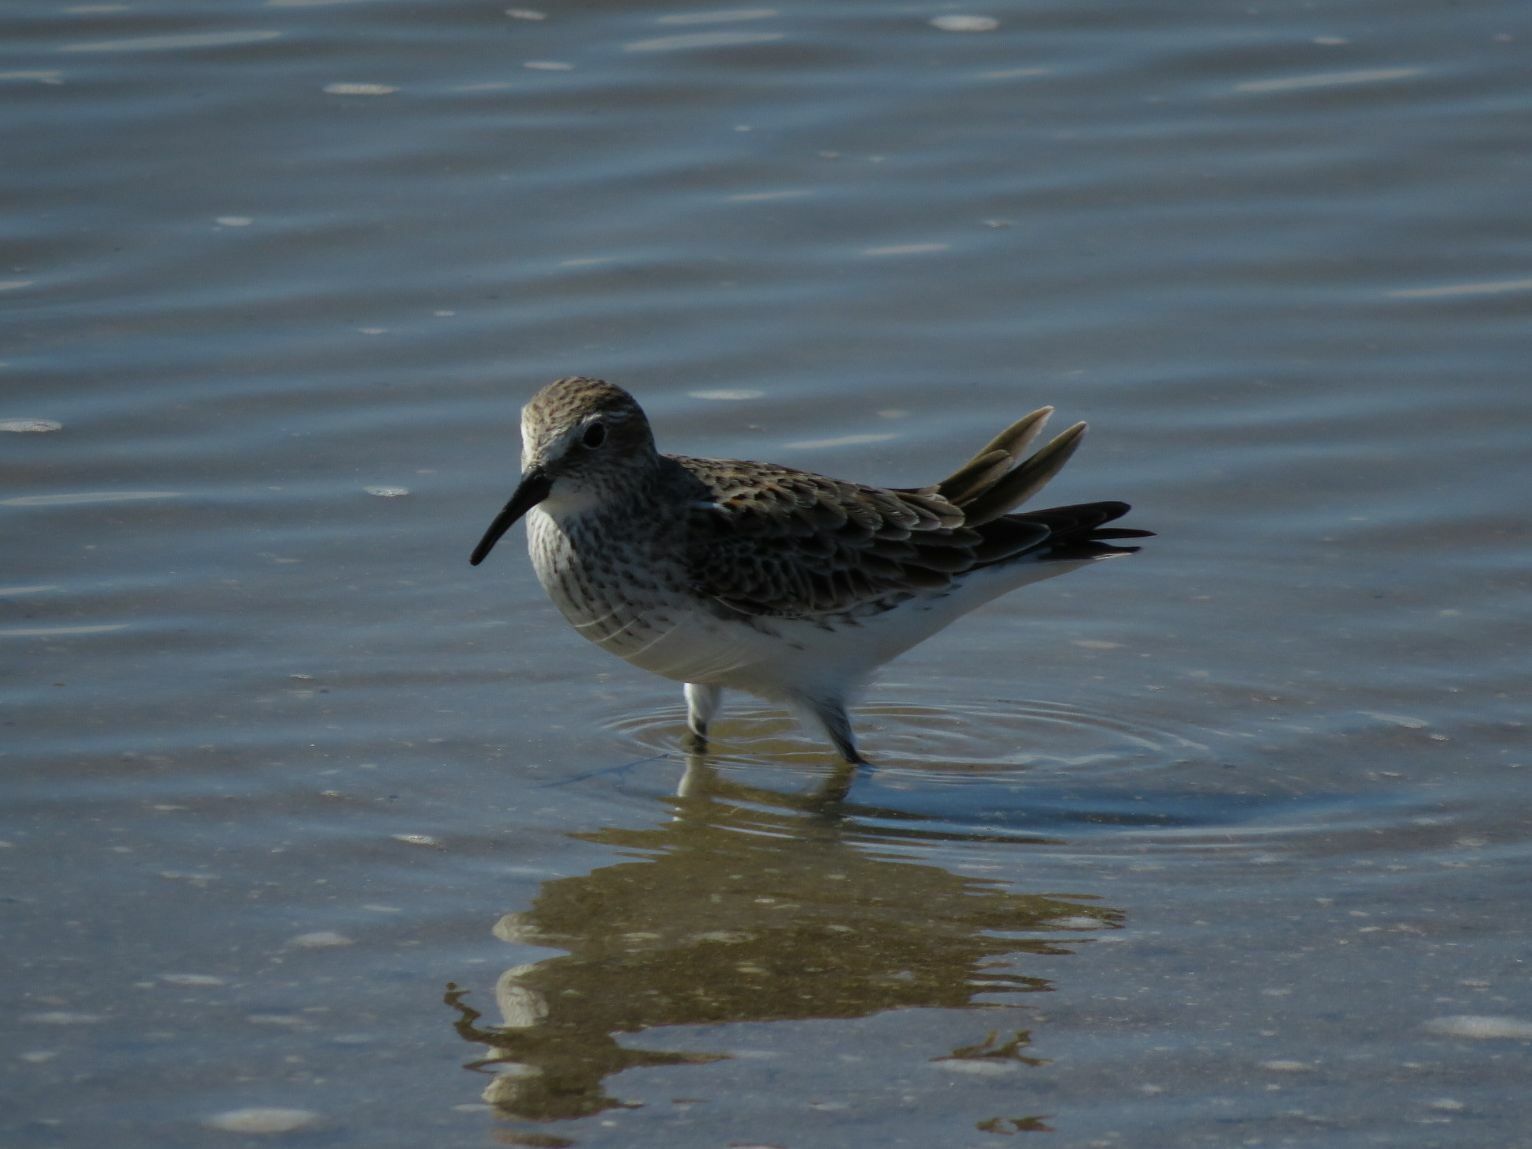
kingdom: Animalia
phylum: Chordata
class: Aves
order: Charadriiformes
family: Scolopacidae
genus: Calidris
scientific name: Calidris fuscicollis
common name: White-rumped sandpiper
